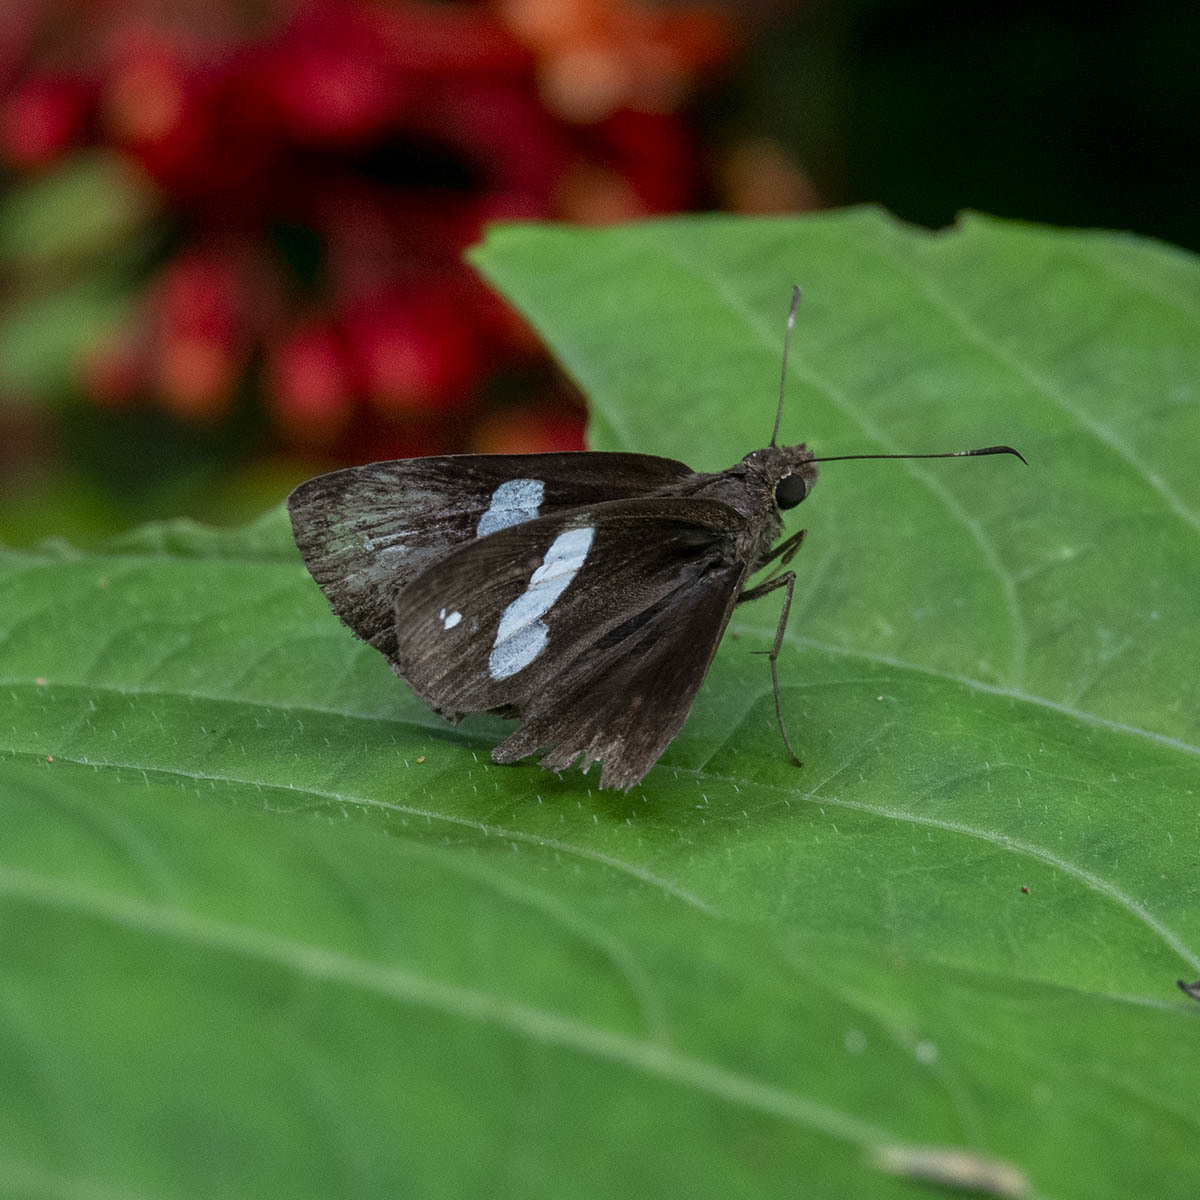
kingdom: Animalia
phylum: Arthropoda
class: Insecta
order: Lepidoptera
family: Hesperiidae
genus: Notocrypta
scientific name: Notocrypta paralysos
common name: Common banded demon
